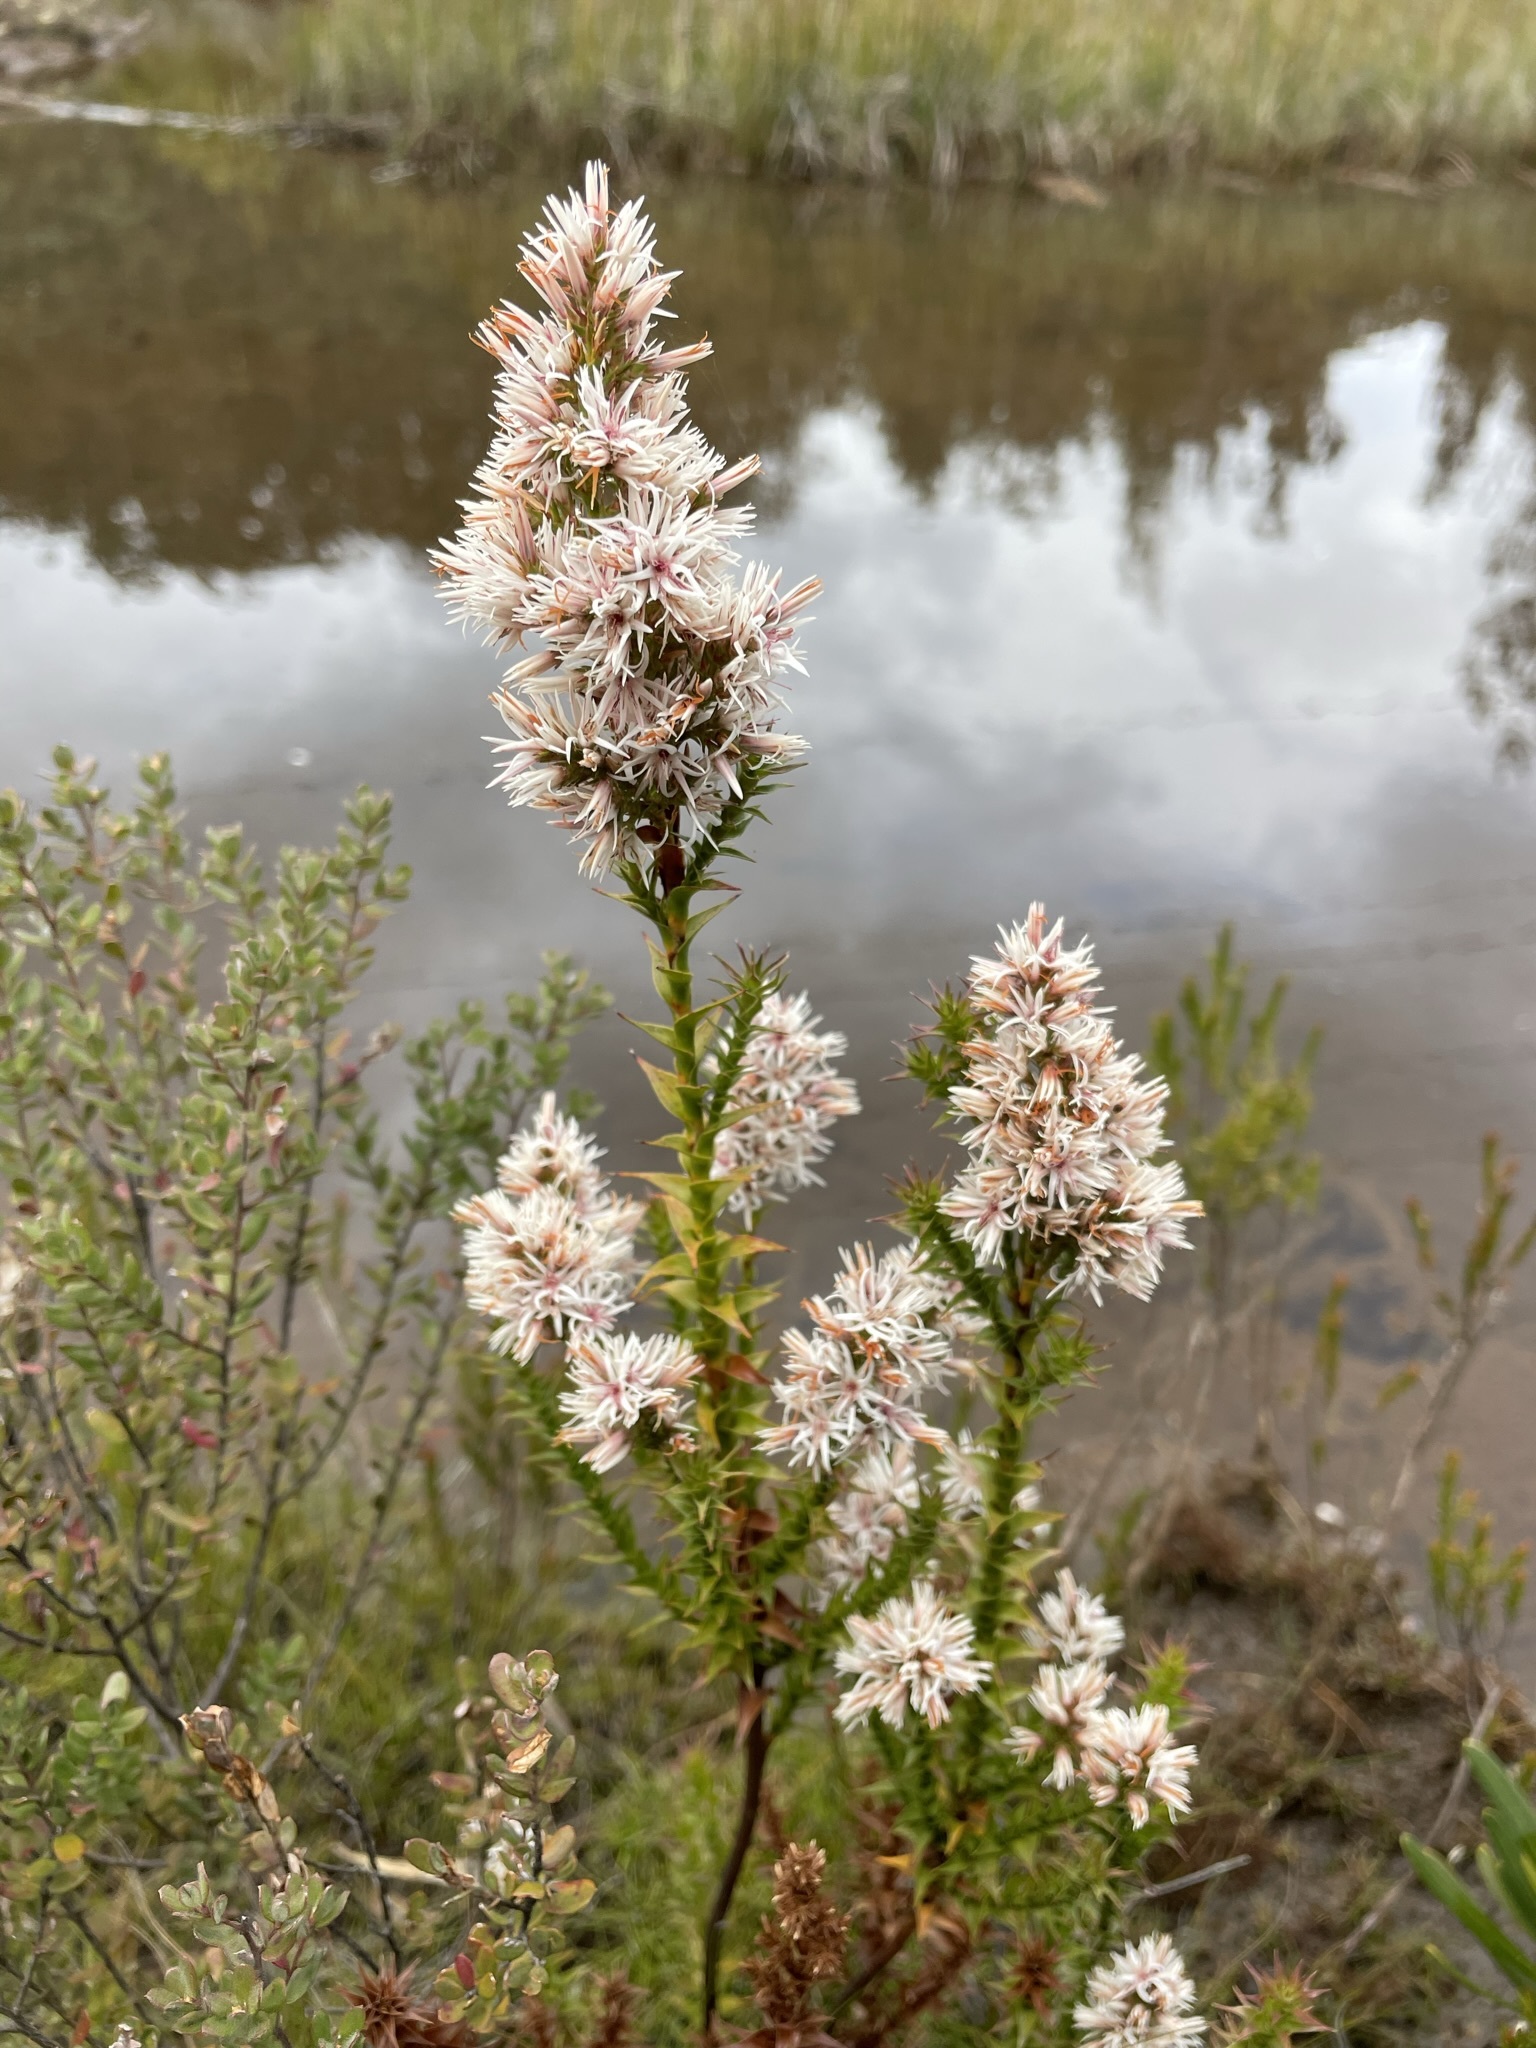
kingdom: Plantae
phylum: Tracheophyta
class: Magnoliopsida
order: Ericales
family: Ericaceae
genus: Sprengelia
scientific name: Sprengelia propinqua
